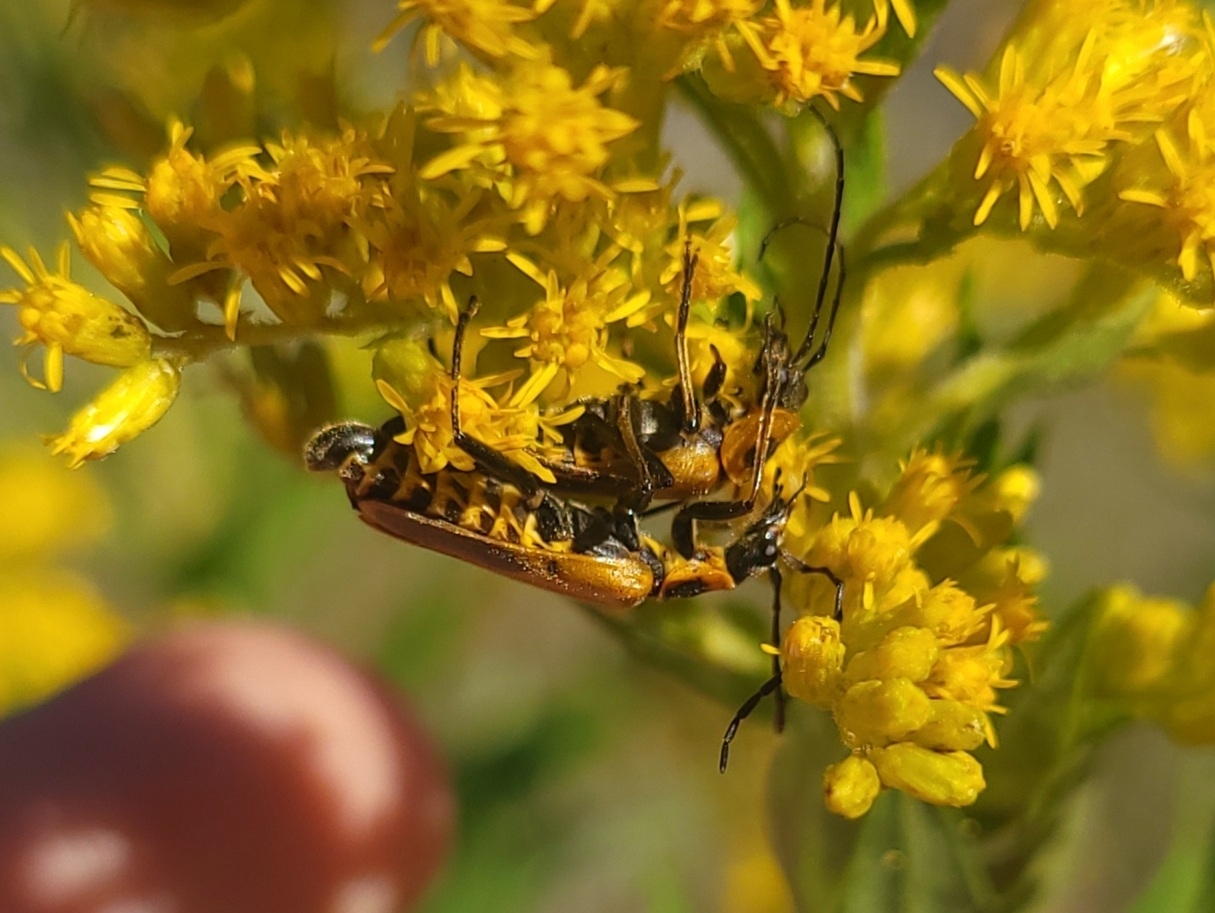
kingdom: Animalia
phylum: Arthropoda
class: Insecta
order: Coleoptera
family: Cantharidae
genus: Chauliognathus
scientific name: Chauliognathus pensylvanicus
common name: Goldenrod soldier beetle
